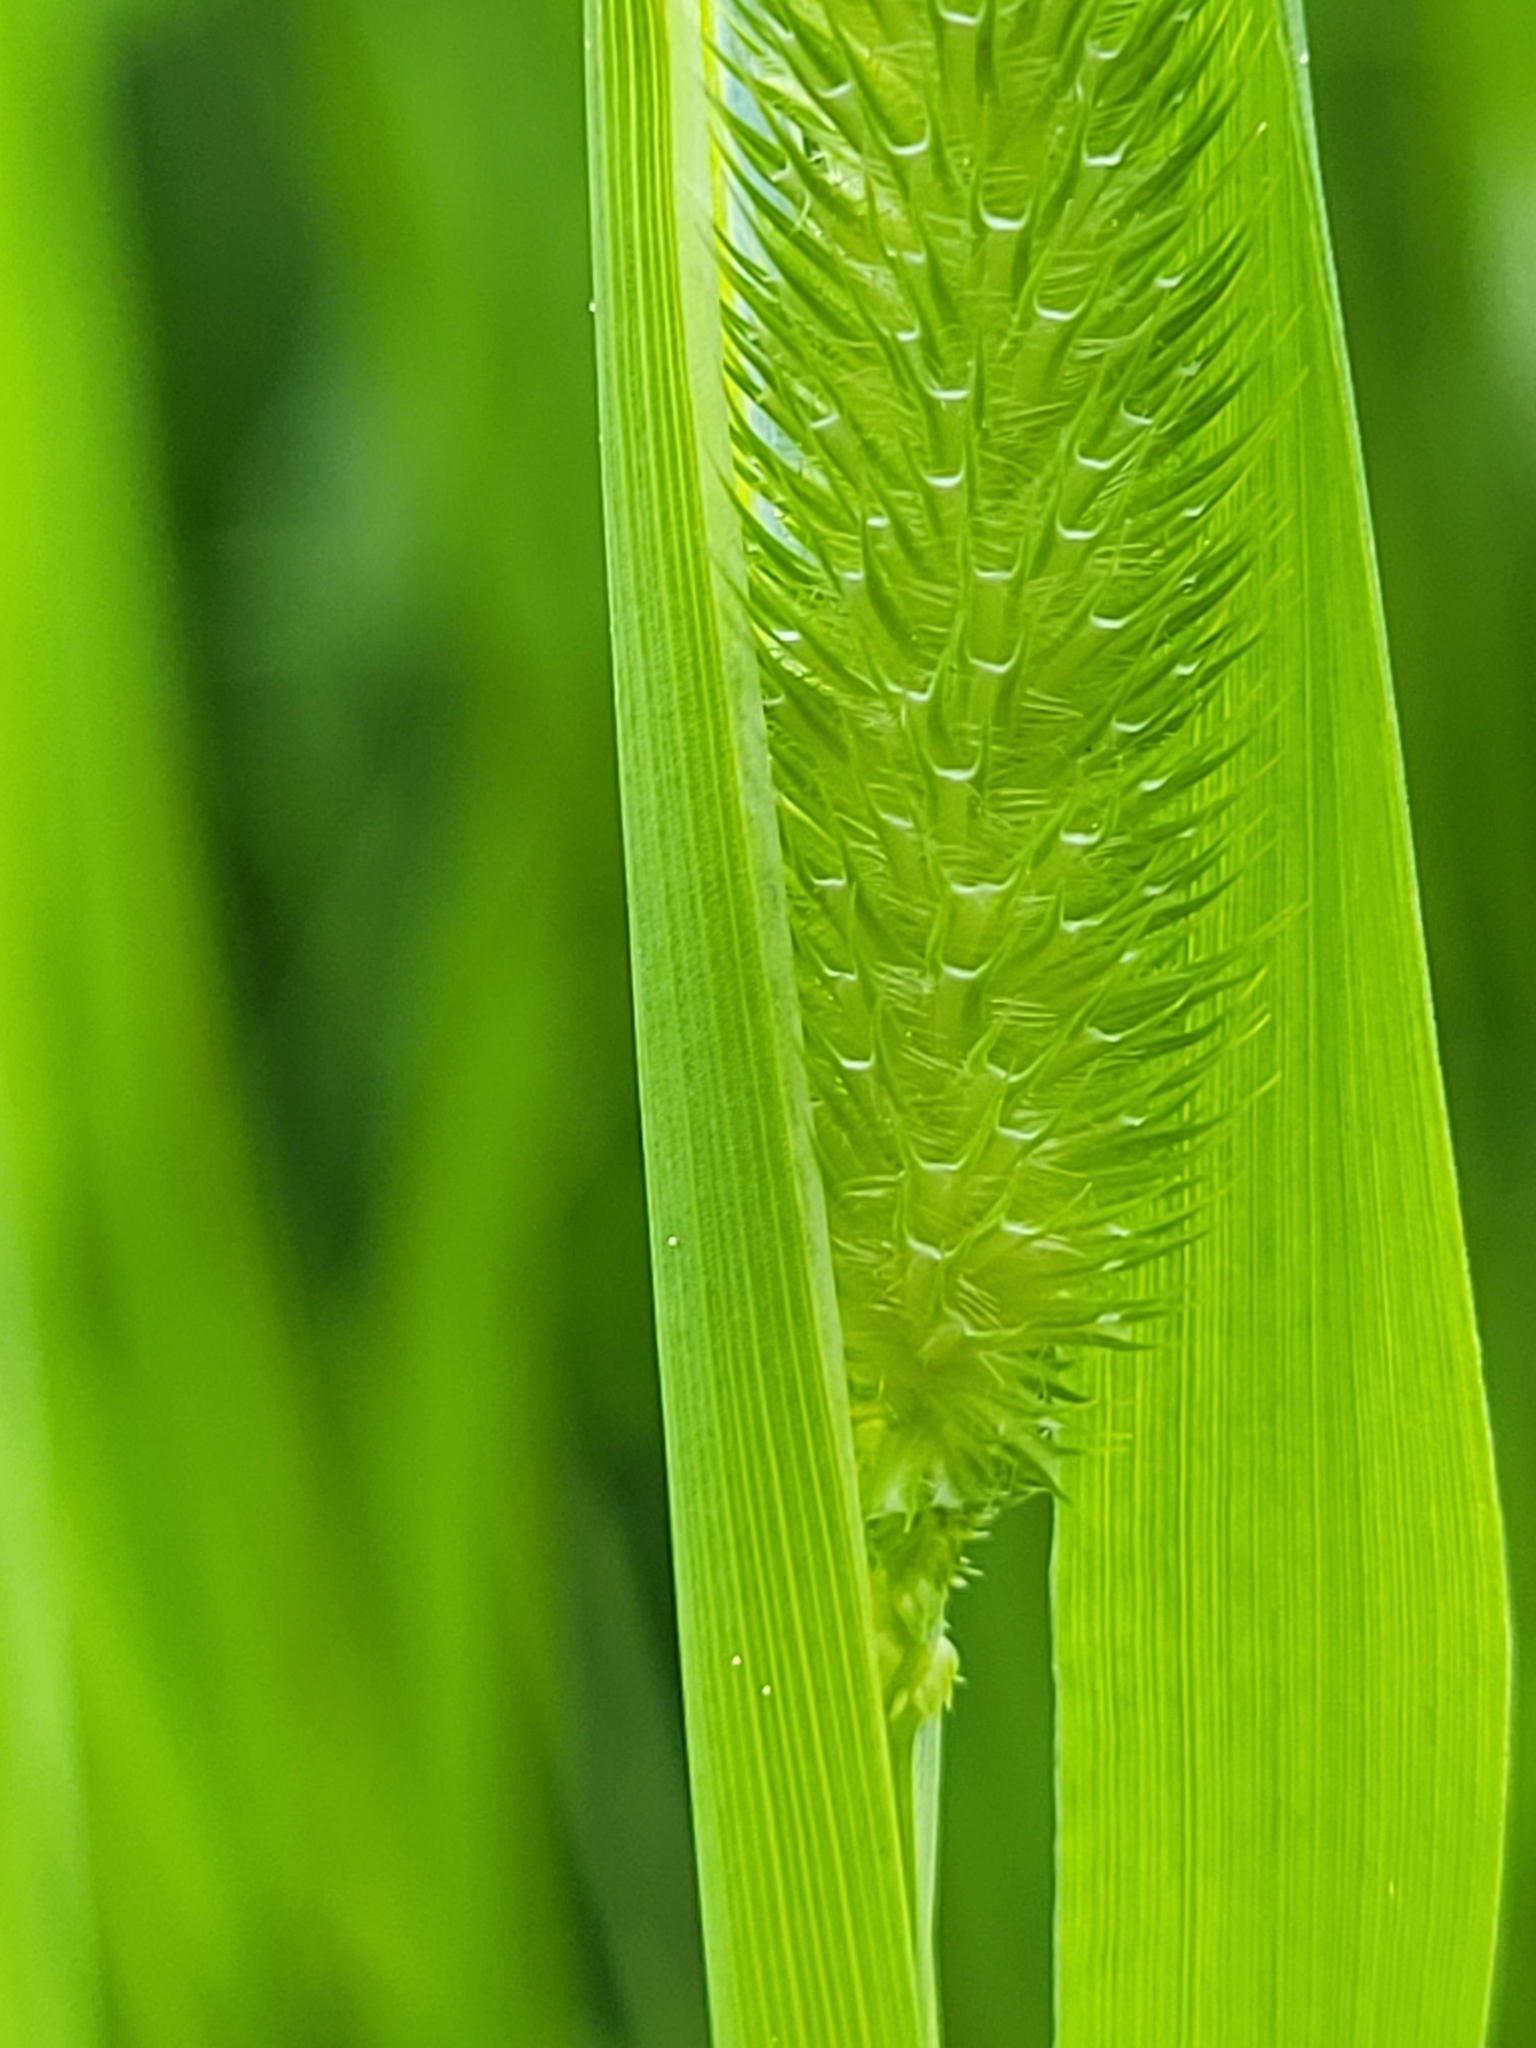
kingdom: Plantae
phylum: Tracheophyta
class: Liliopsida
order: Poales
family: Poaceae
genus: Phleum
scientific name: Phleum pratense
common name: Timothy grass
